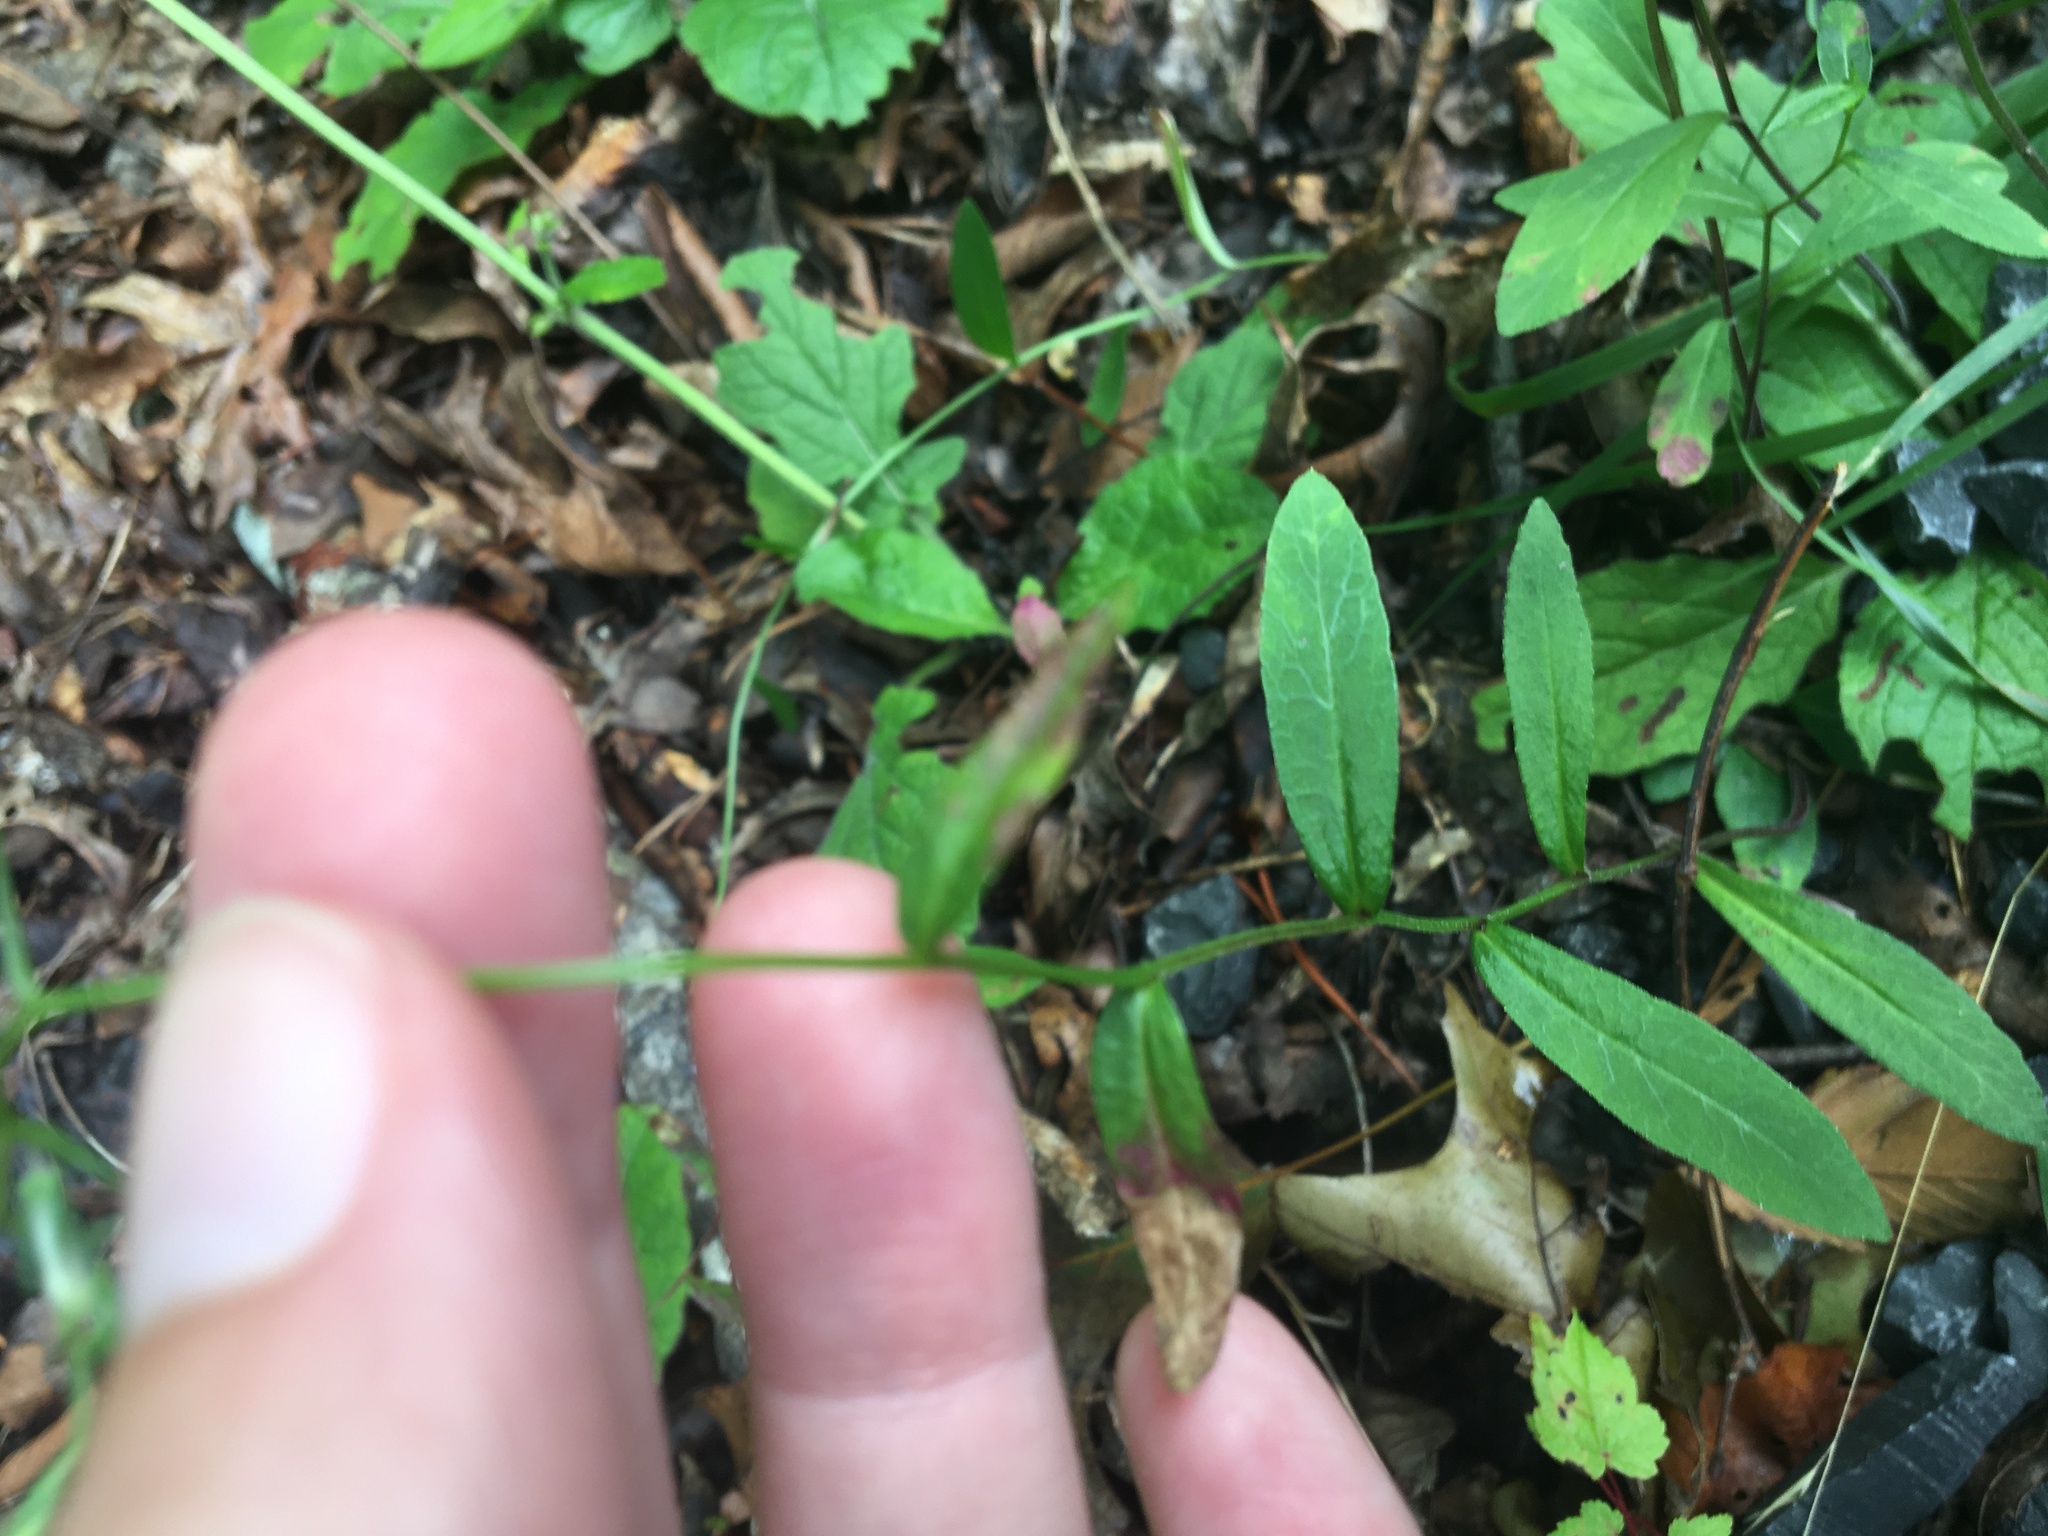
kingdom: Plantae
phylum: Tracheophyta
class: Magnoliopsida
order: Asterales
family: Campanulaceae
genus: Lobelia
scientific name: Lobelia spicata
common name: Pale-spike lobelia
